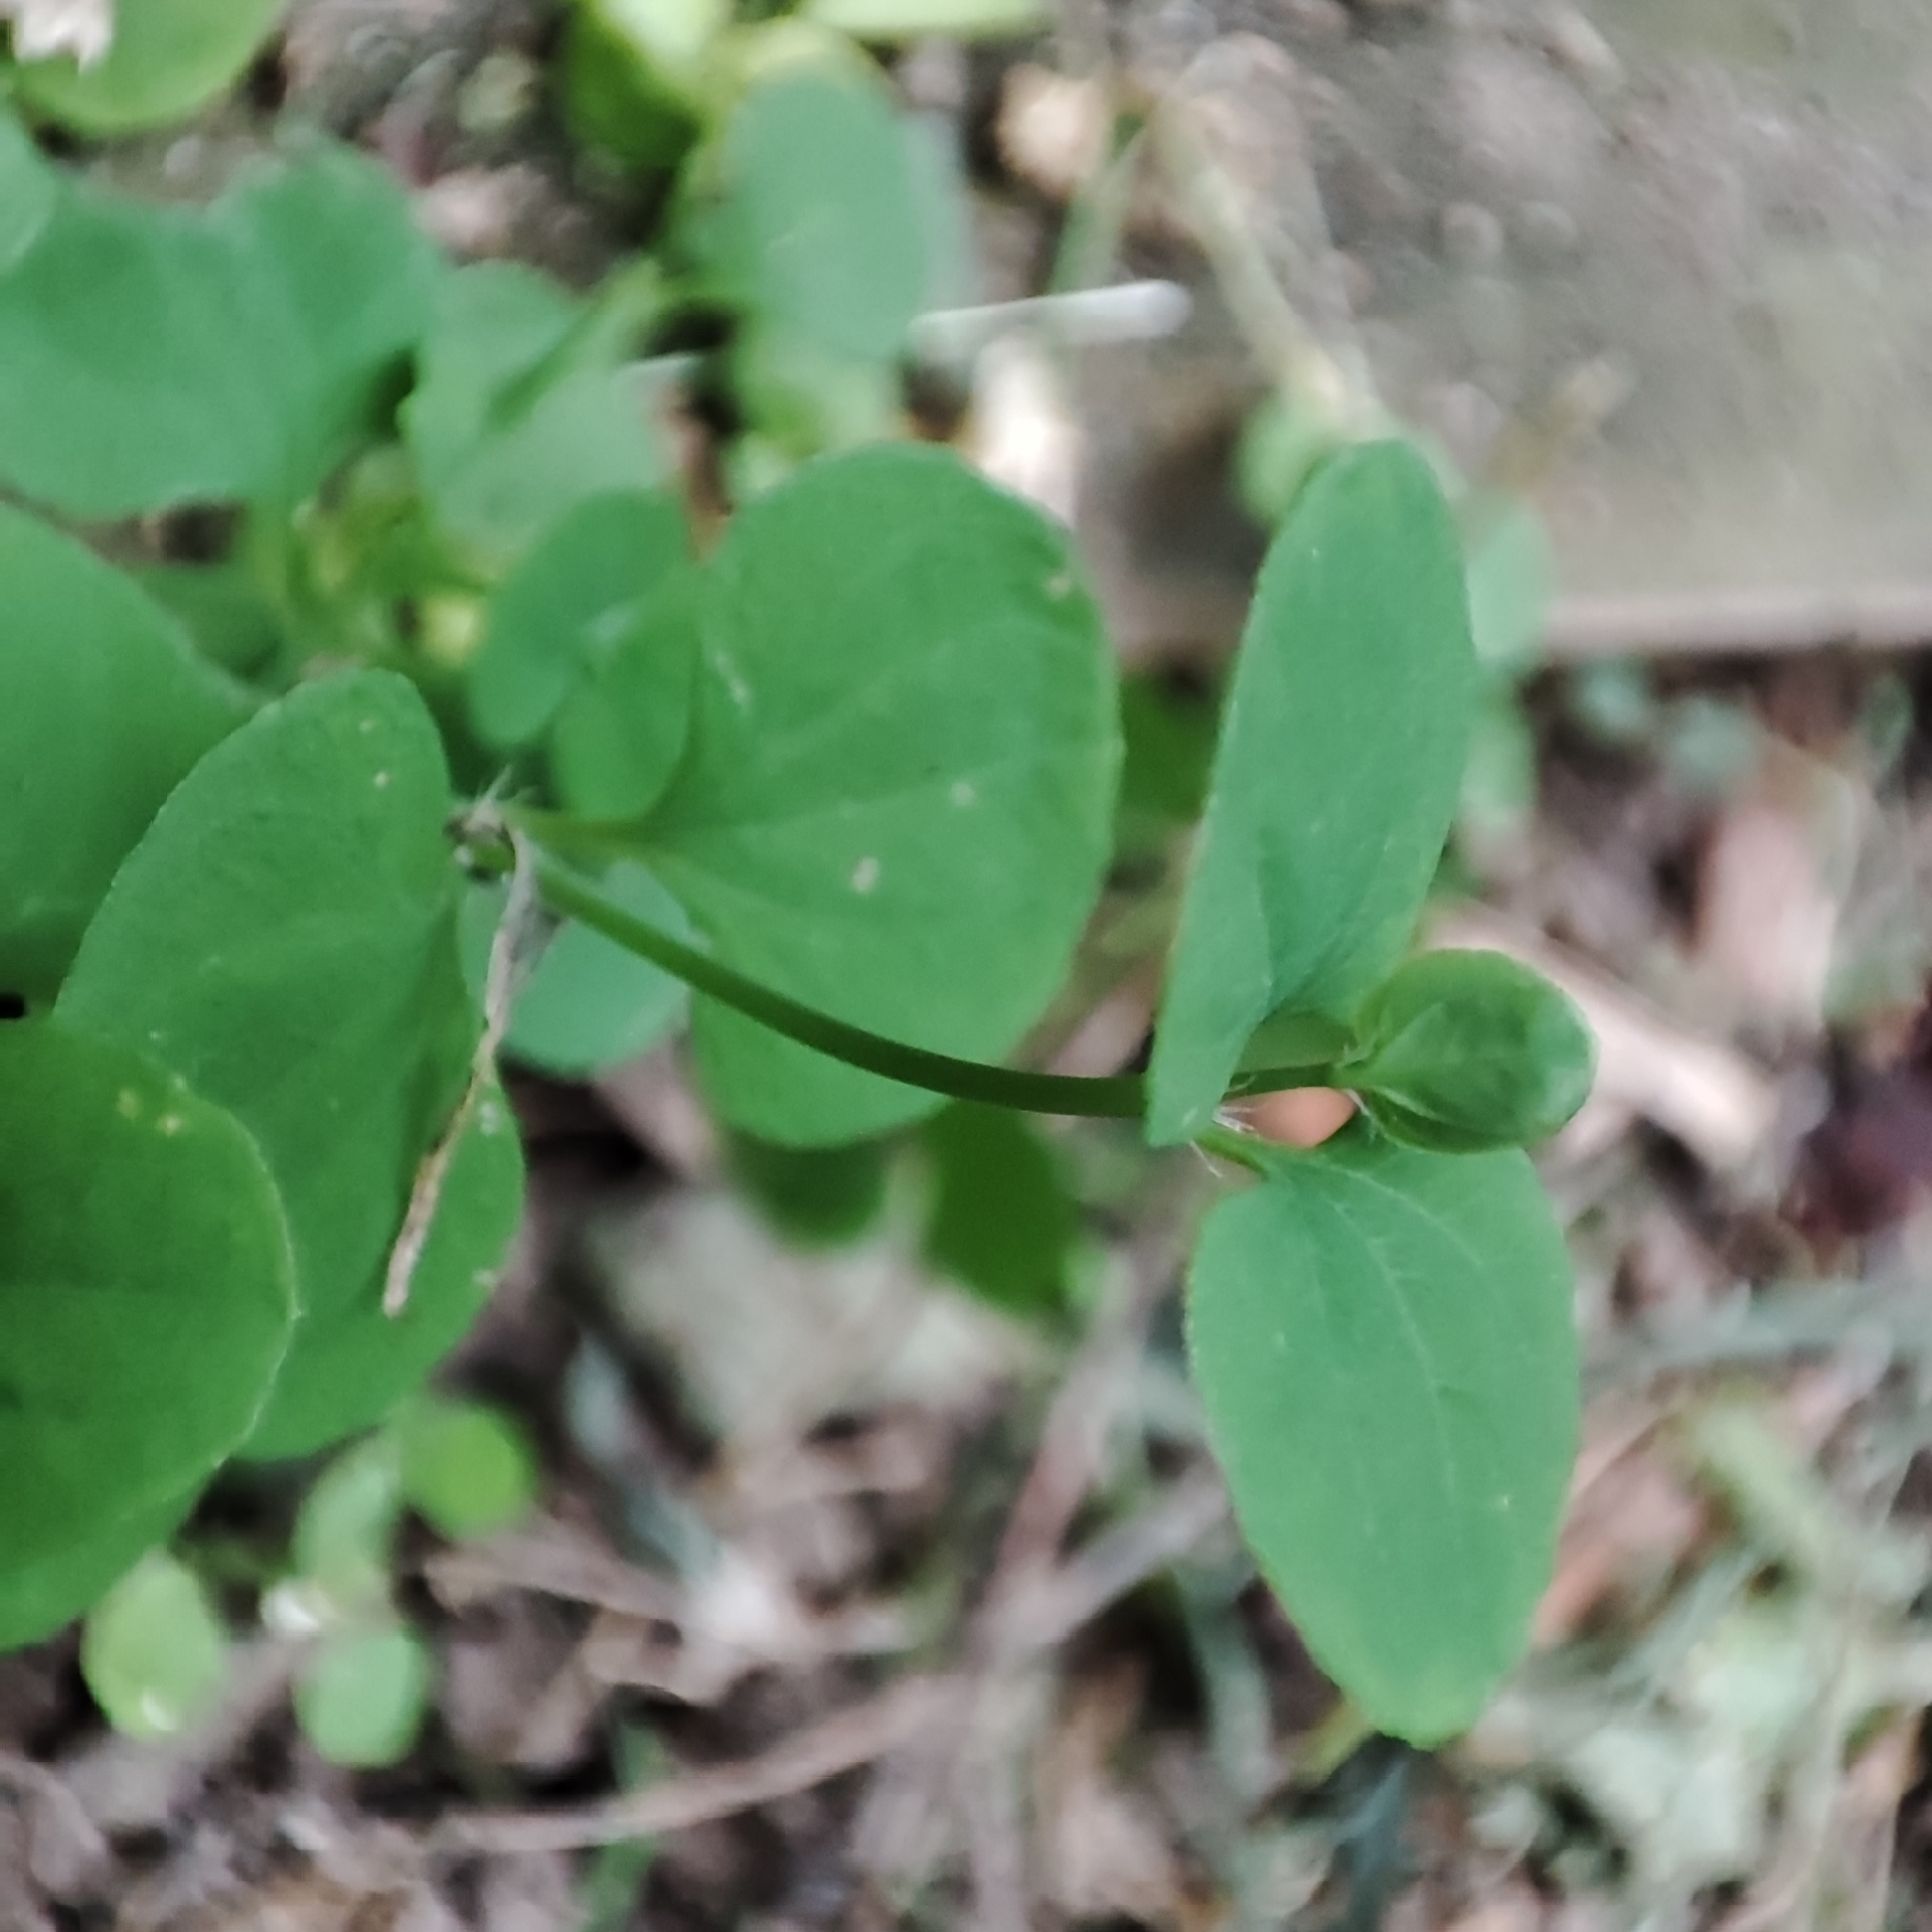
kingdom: Plantae
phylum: Tracheophyta
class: Magnoliopsida
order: Caryophyllales
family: Caryophyllaceae
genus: Drymaria
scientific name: Drymaria cordata
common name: Whitesnow
